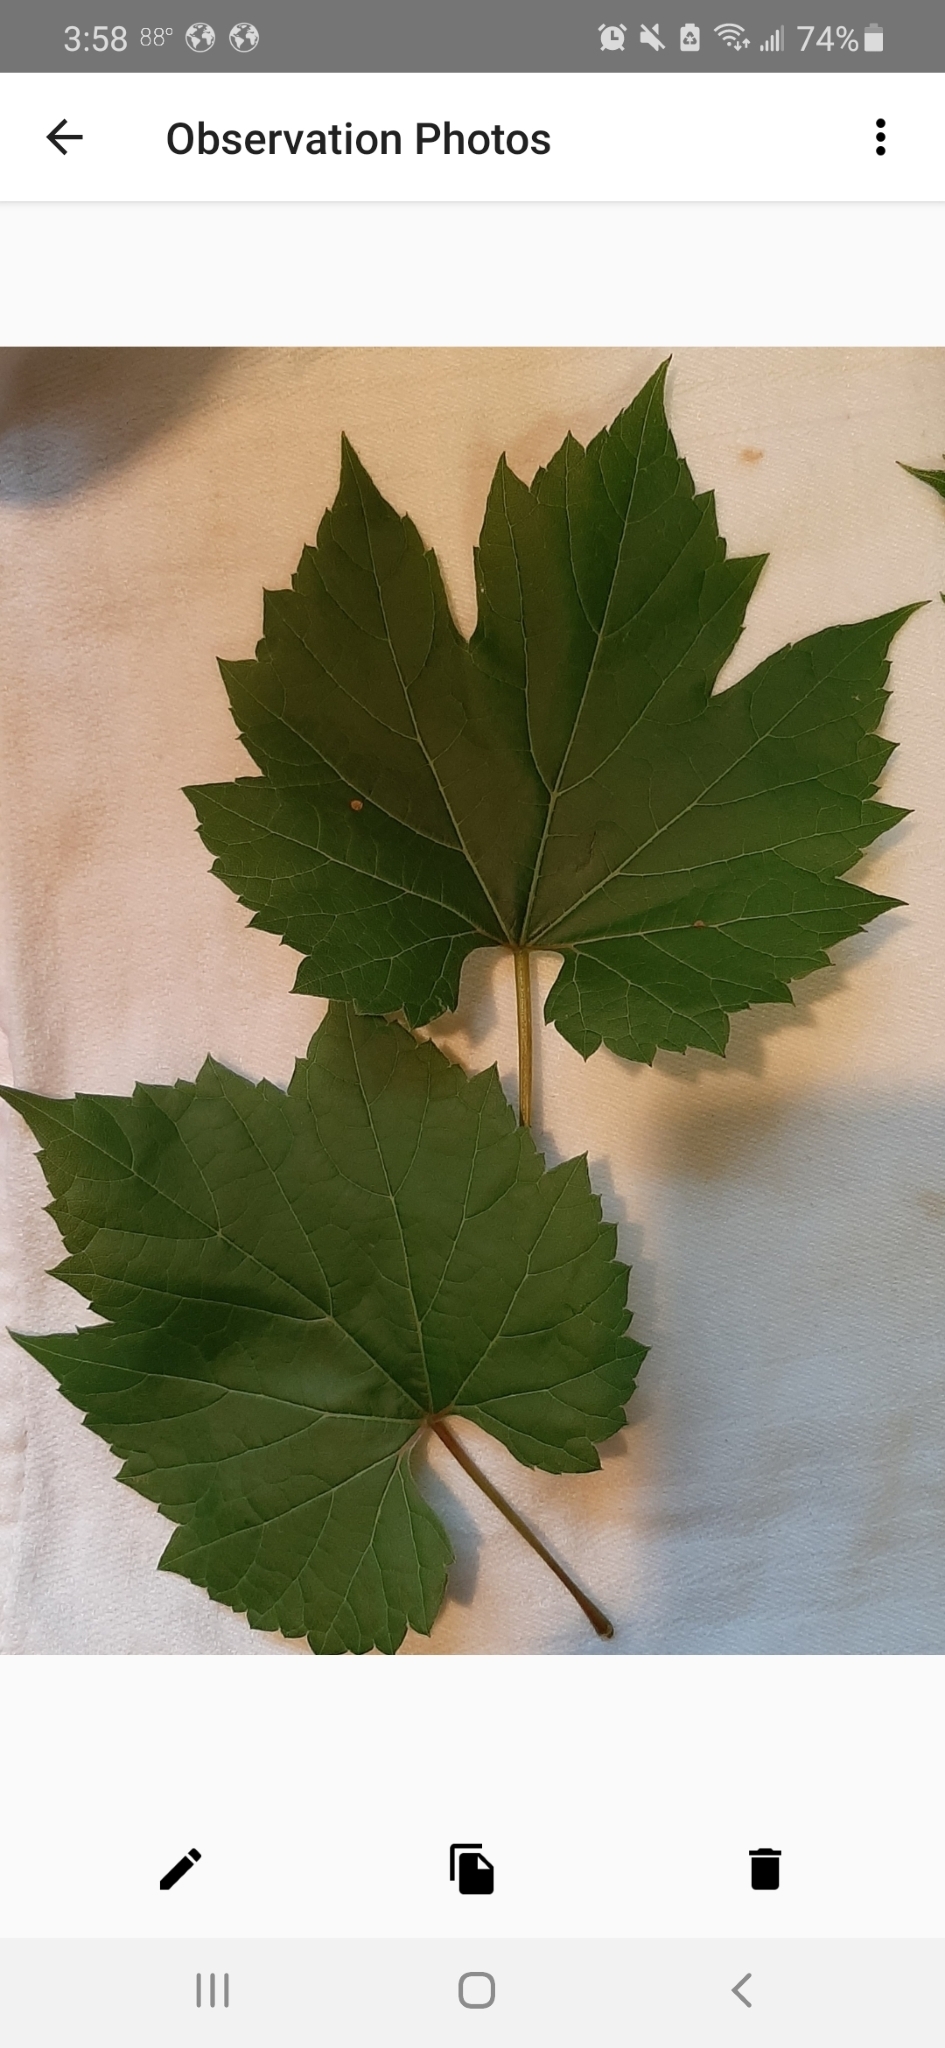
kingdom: Plantae
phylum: Tracheophyta
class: Magnoliopsida
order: Vitales
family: Vitaceae
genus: Vitis
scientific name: Vitis riparia
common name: Frost grape
